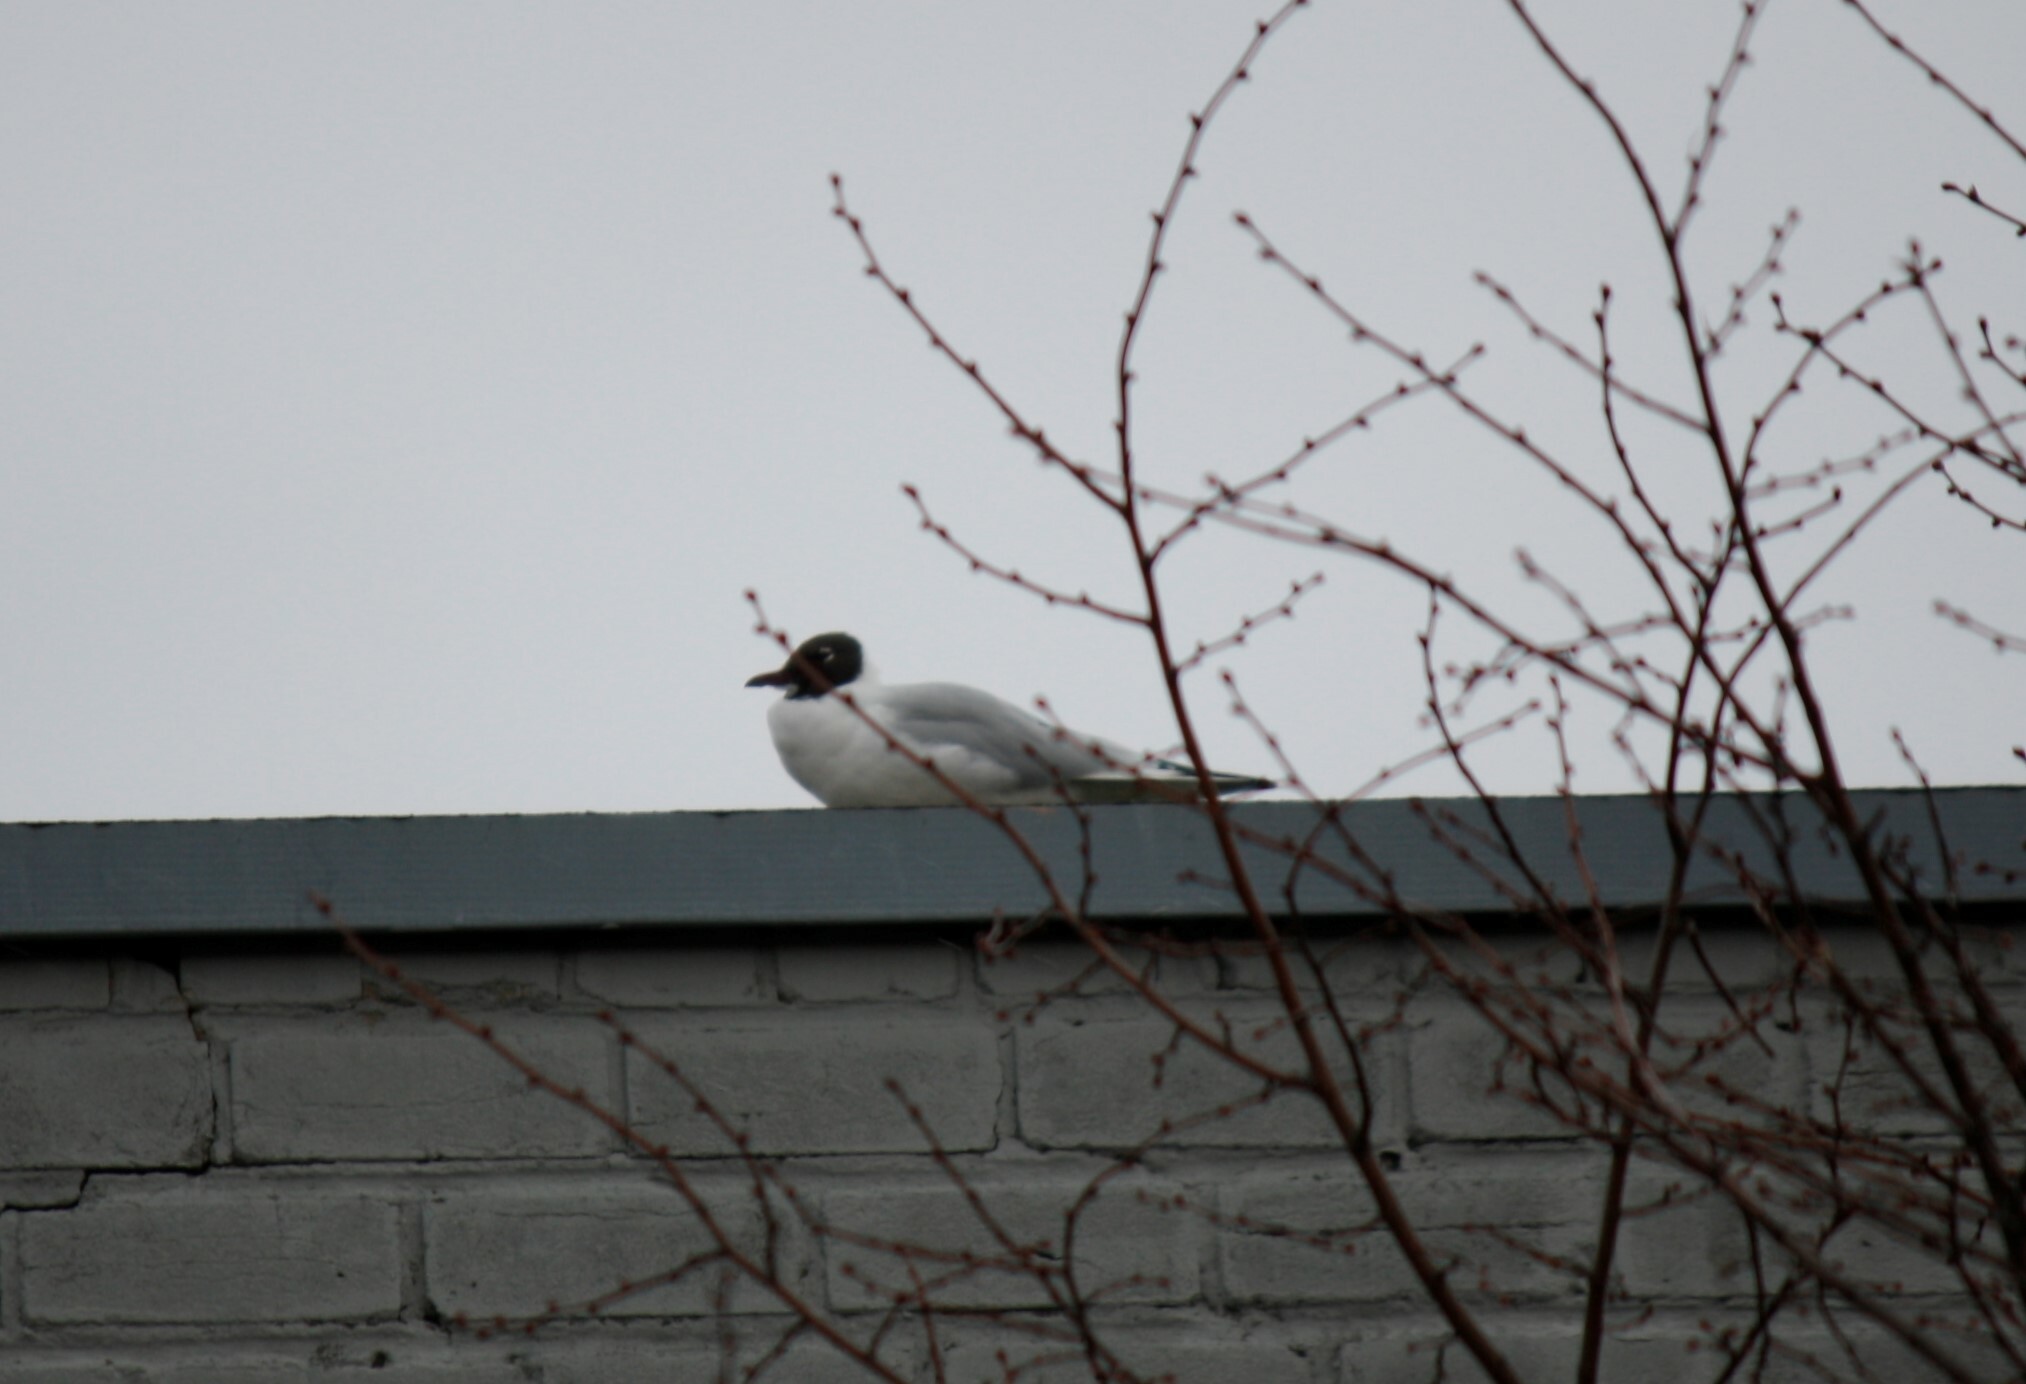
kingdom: Animalia
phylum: Chordata
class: Aves
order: Charadriiformes
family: Laridae
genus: Chroicocephalus
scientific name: Chroicocephalus ridibundus
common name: Black-headed gull
